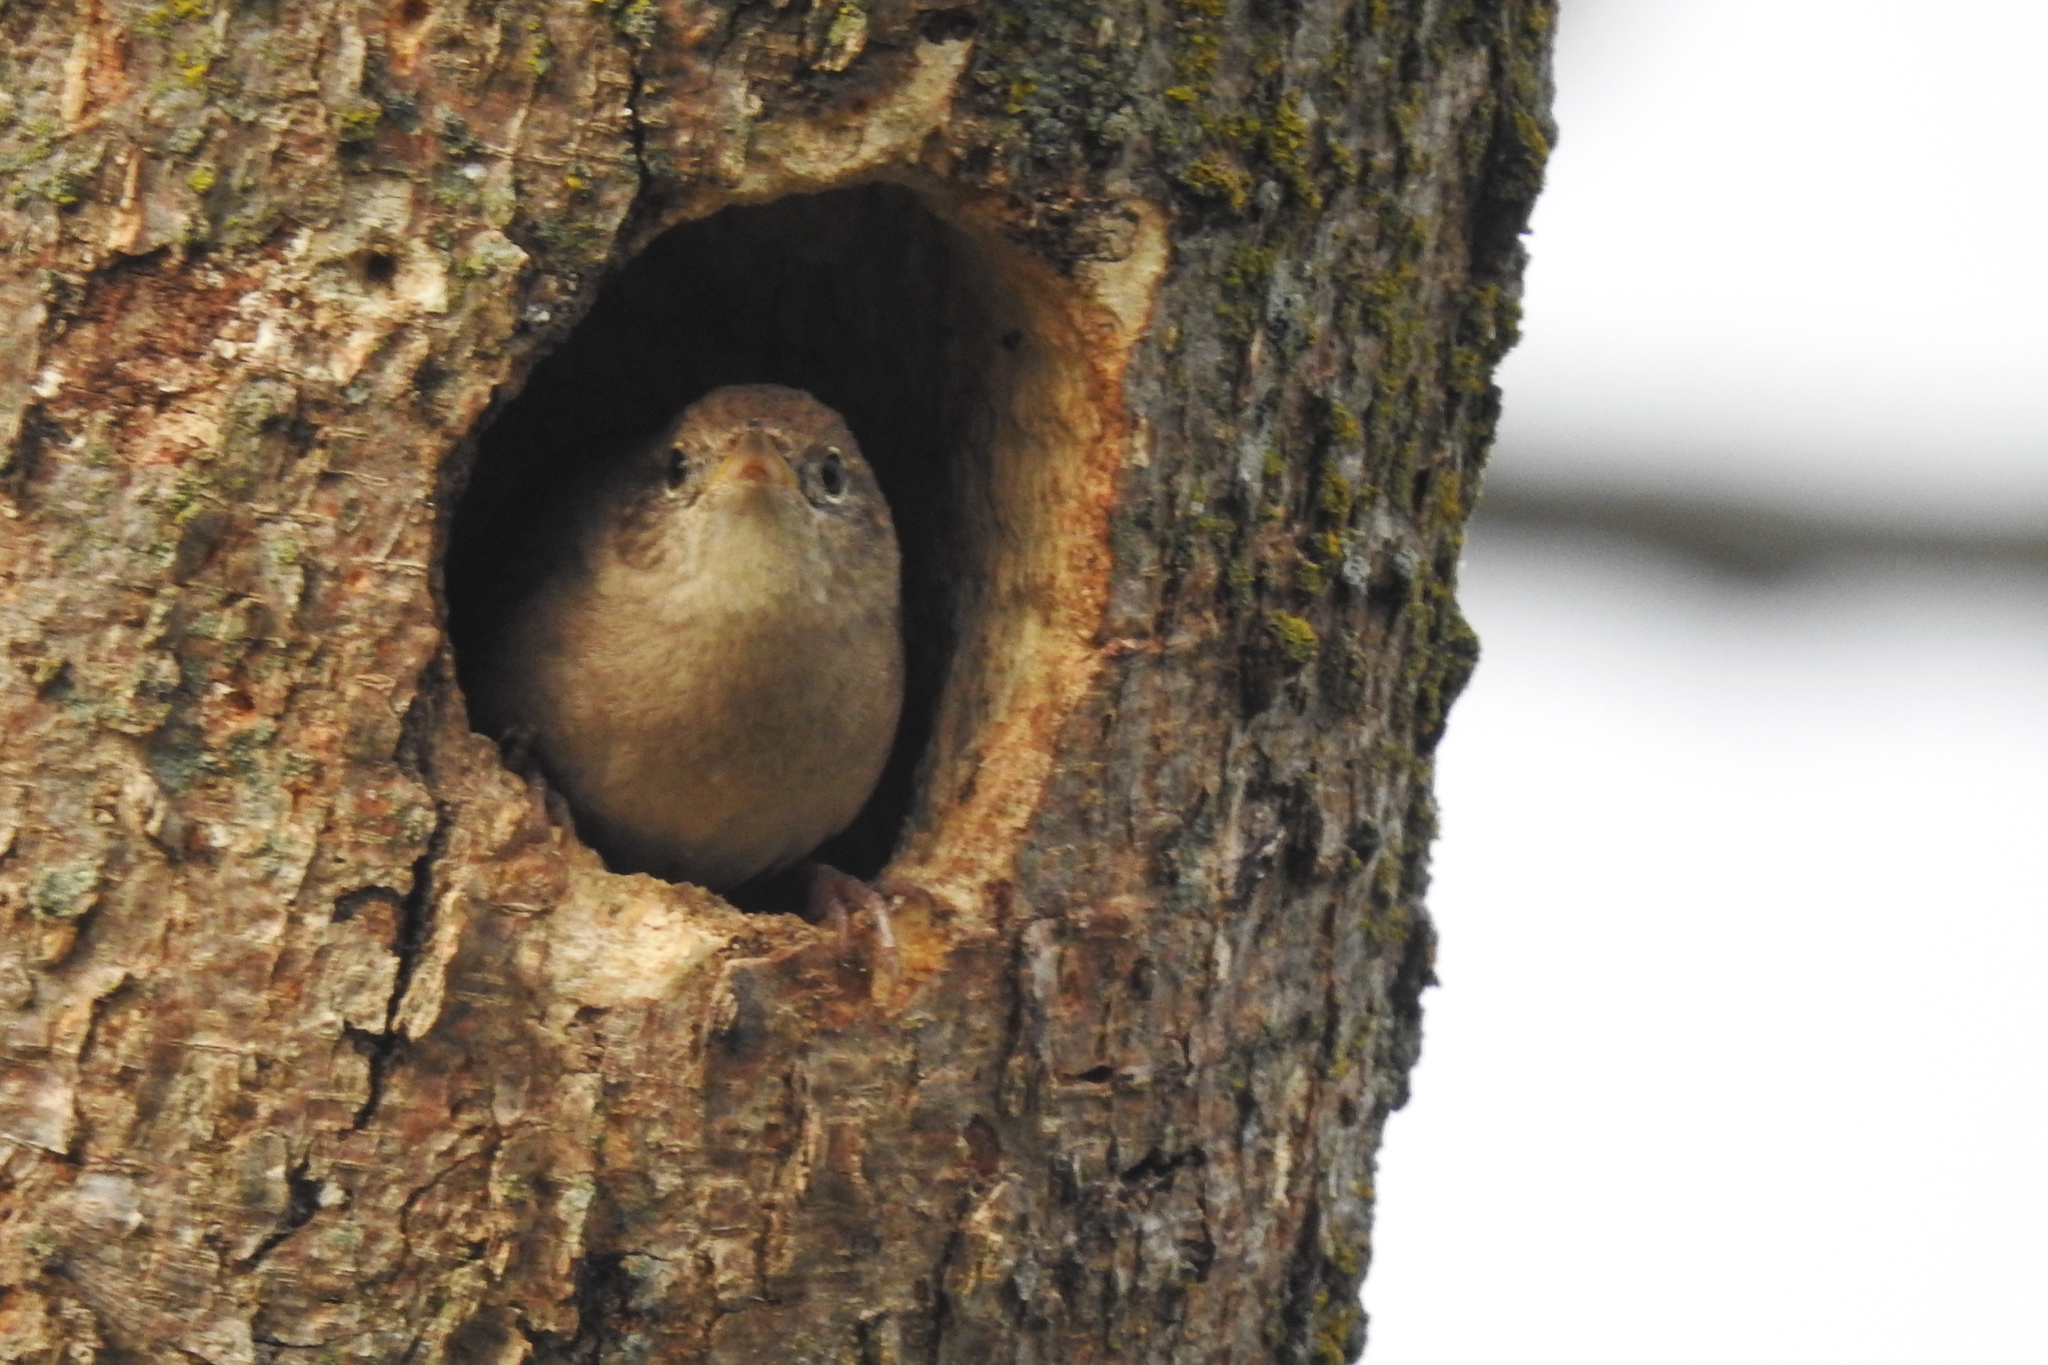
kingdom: Animalia
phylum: Chordata
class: Aves
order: Passeriformes
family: Troglodytidae
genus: Troglodytes
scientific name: Troglodytes aedon
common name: House wren
